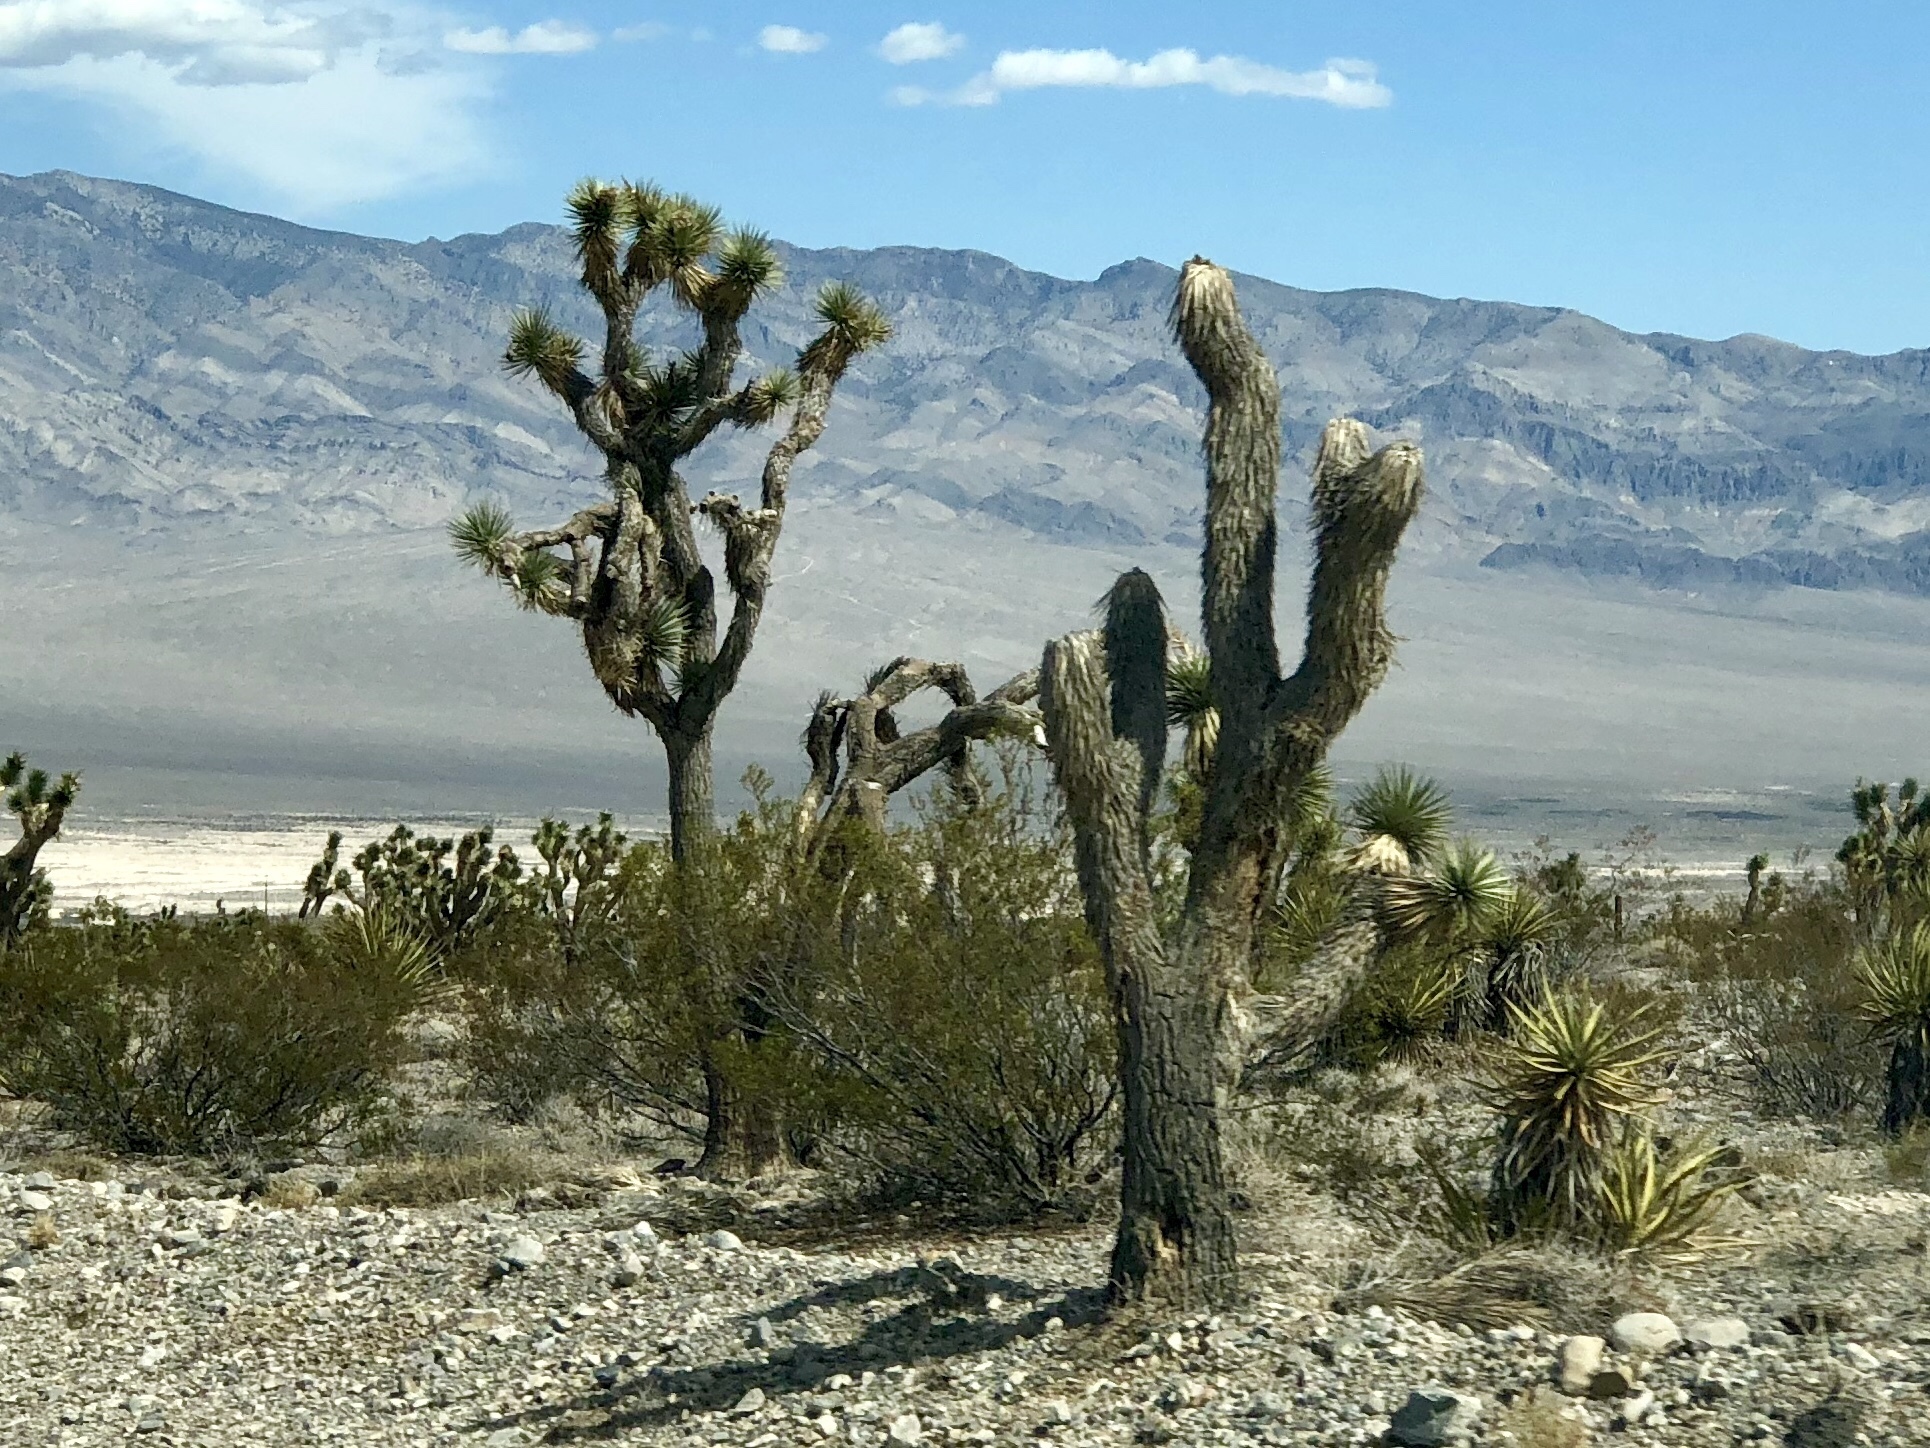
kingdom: Plantae
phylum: Tracheophyta
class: Liliopsida
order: Asparagales
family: Asparagaceae
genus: Yucca
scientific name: Yucca brevifolia
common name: Joshua tree
